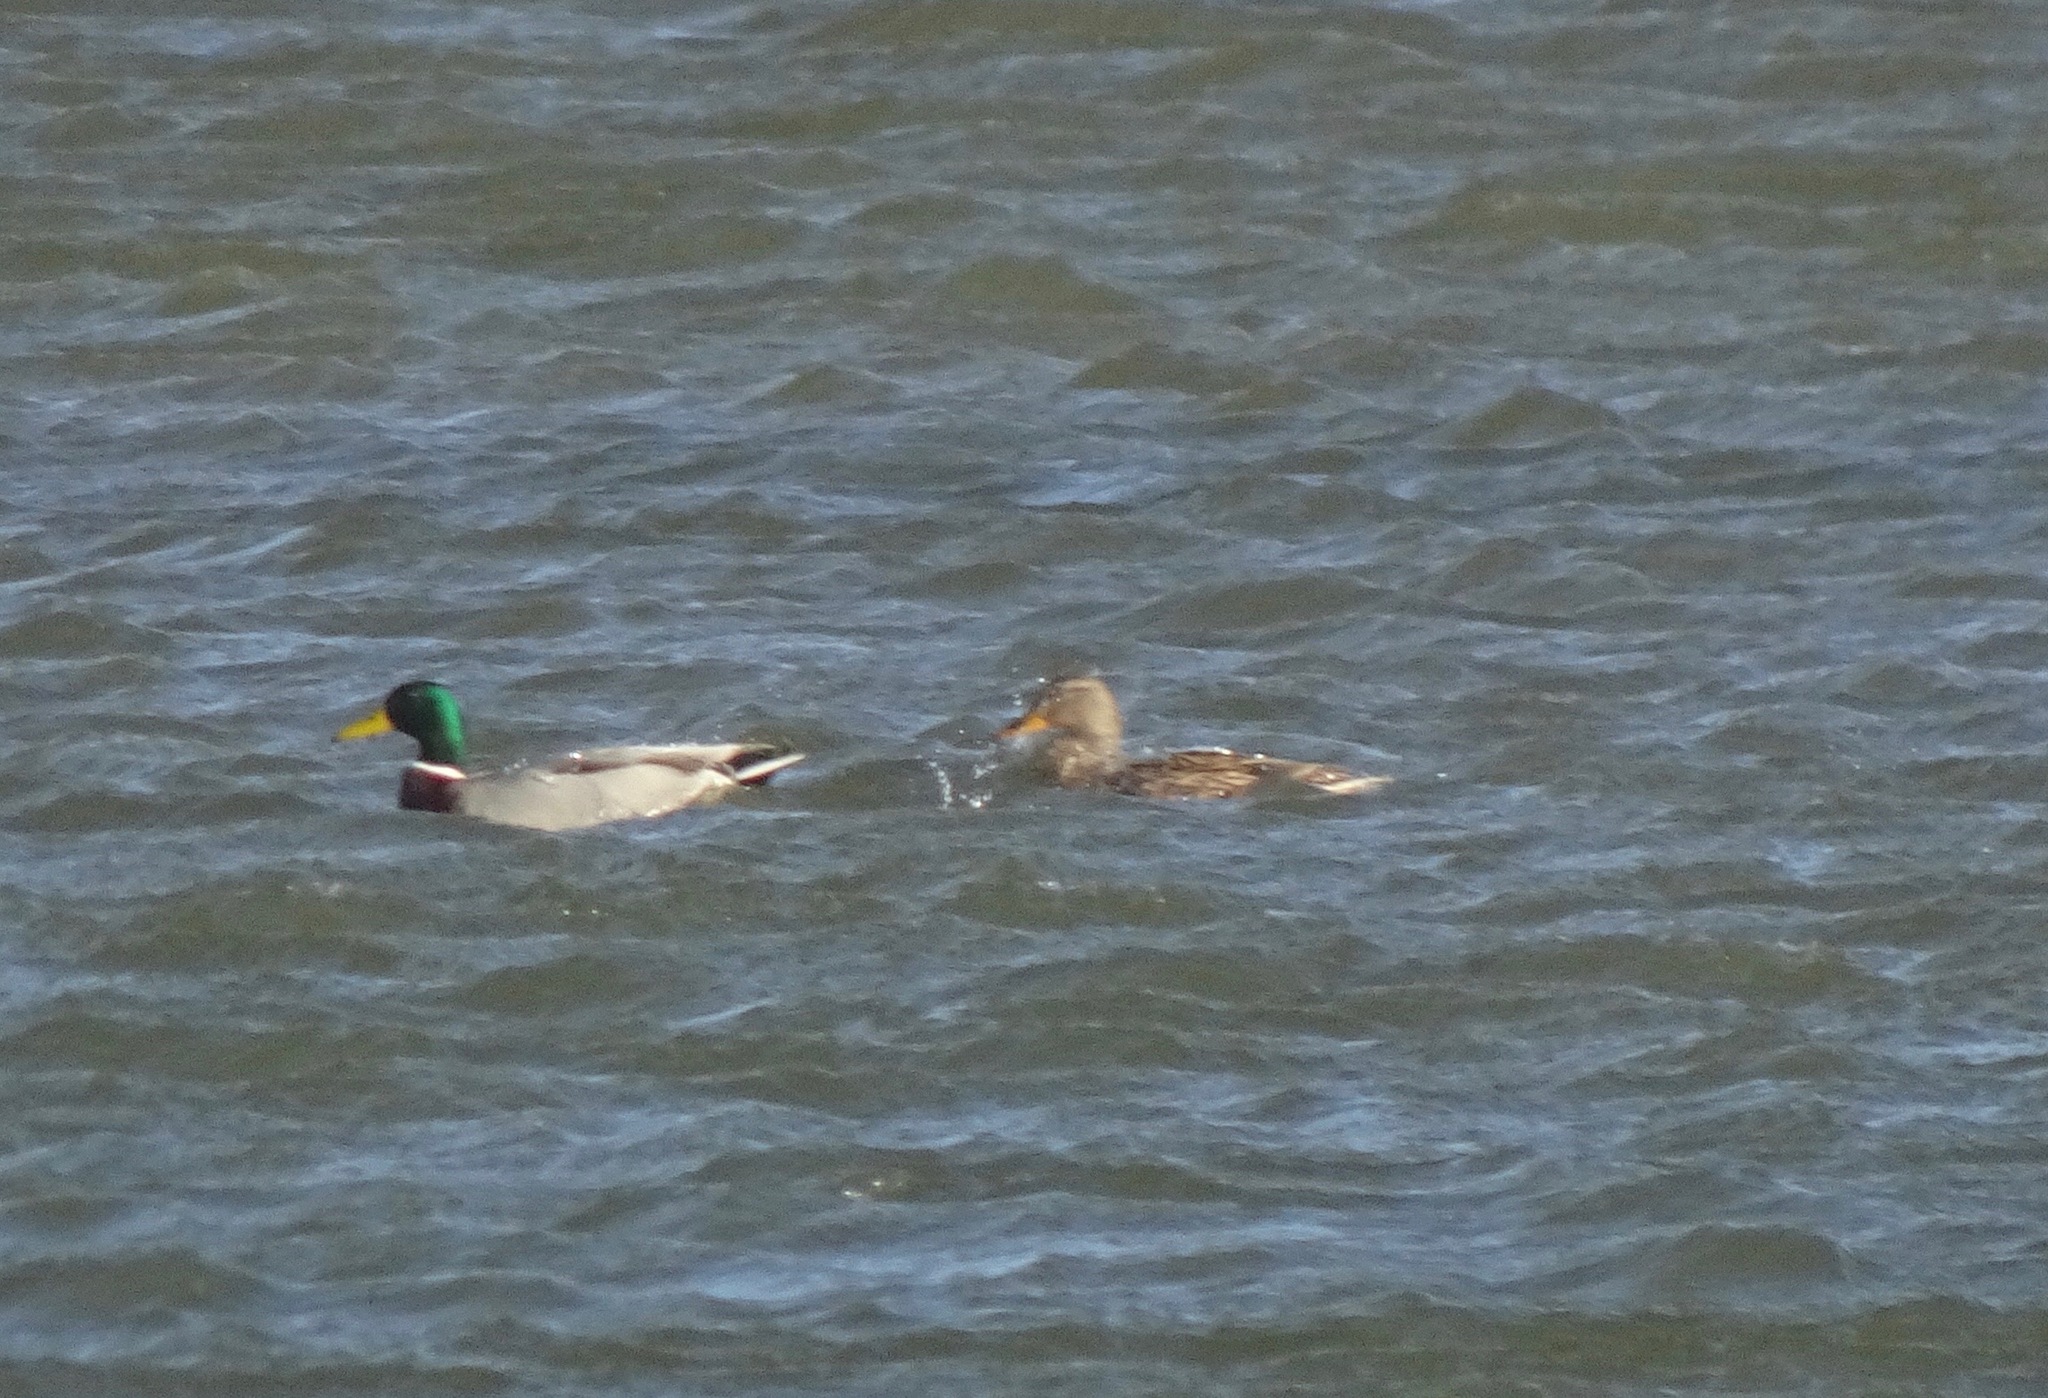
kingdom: Animalia
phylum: Chordata
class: Aves
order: Anseriformes
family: Anatidae
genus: Anas
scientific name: Anas platyrhynchos
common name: Mallard
